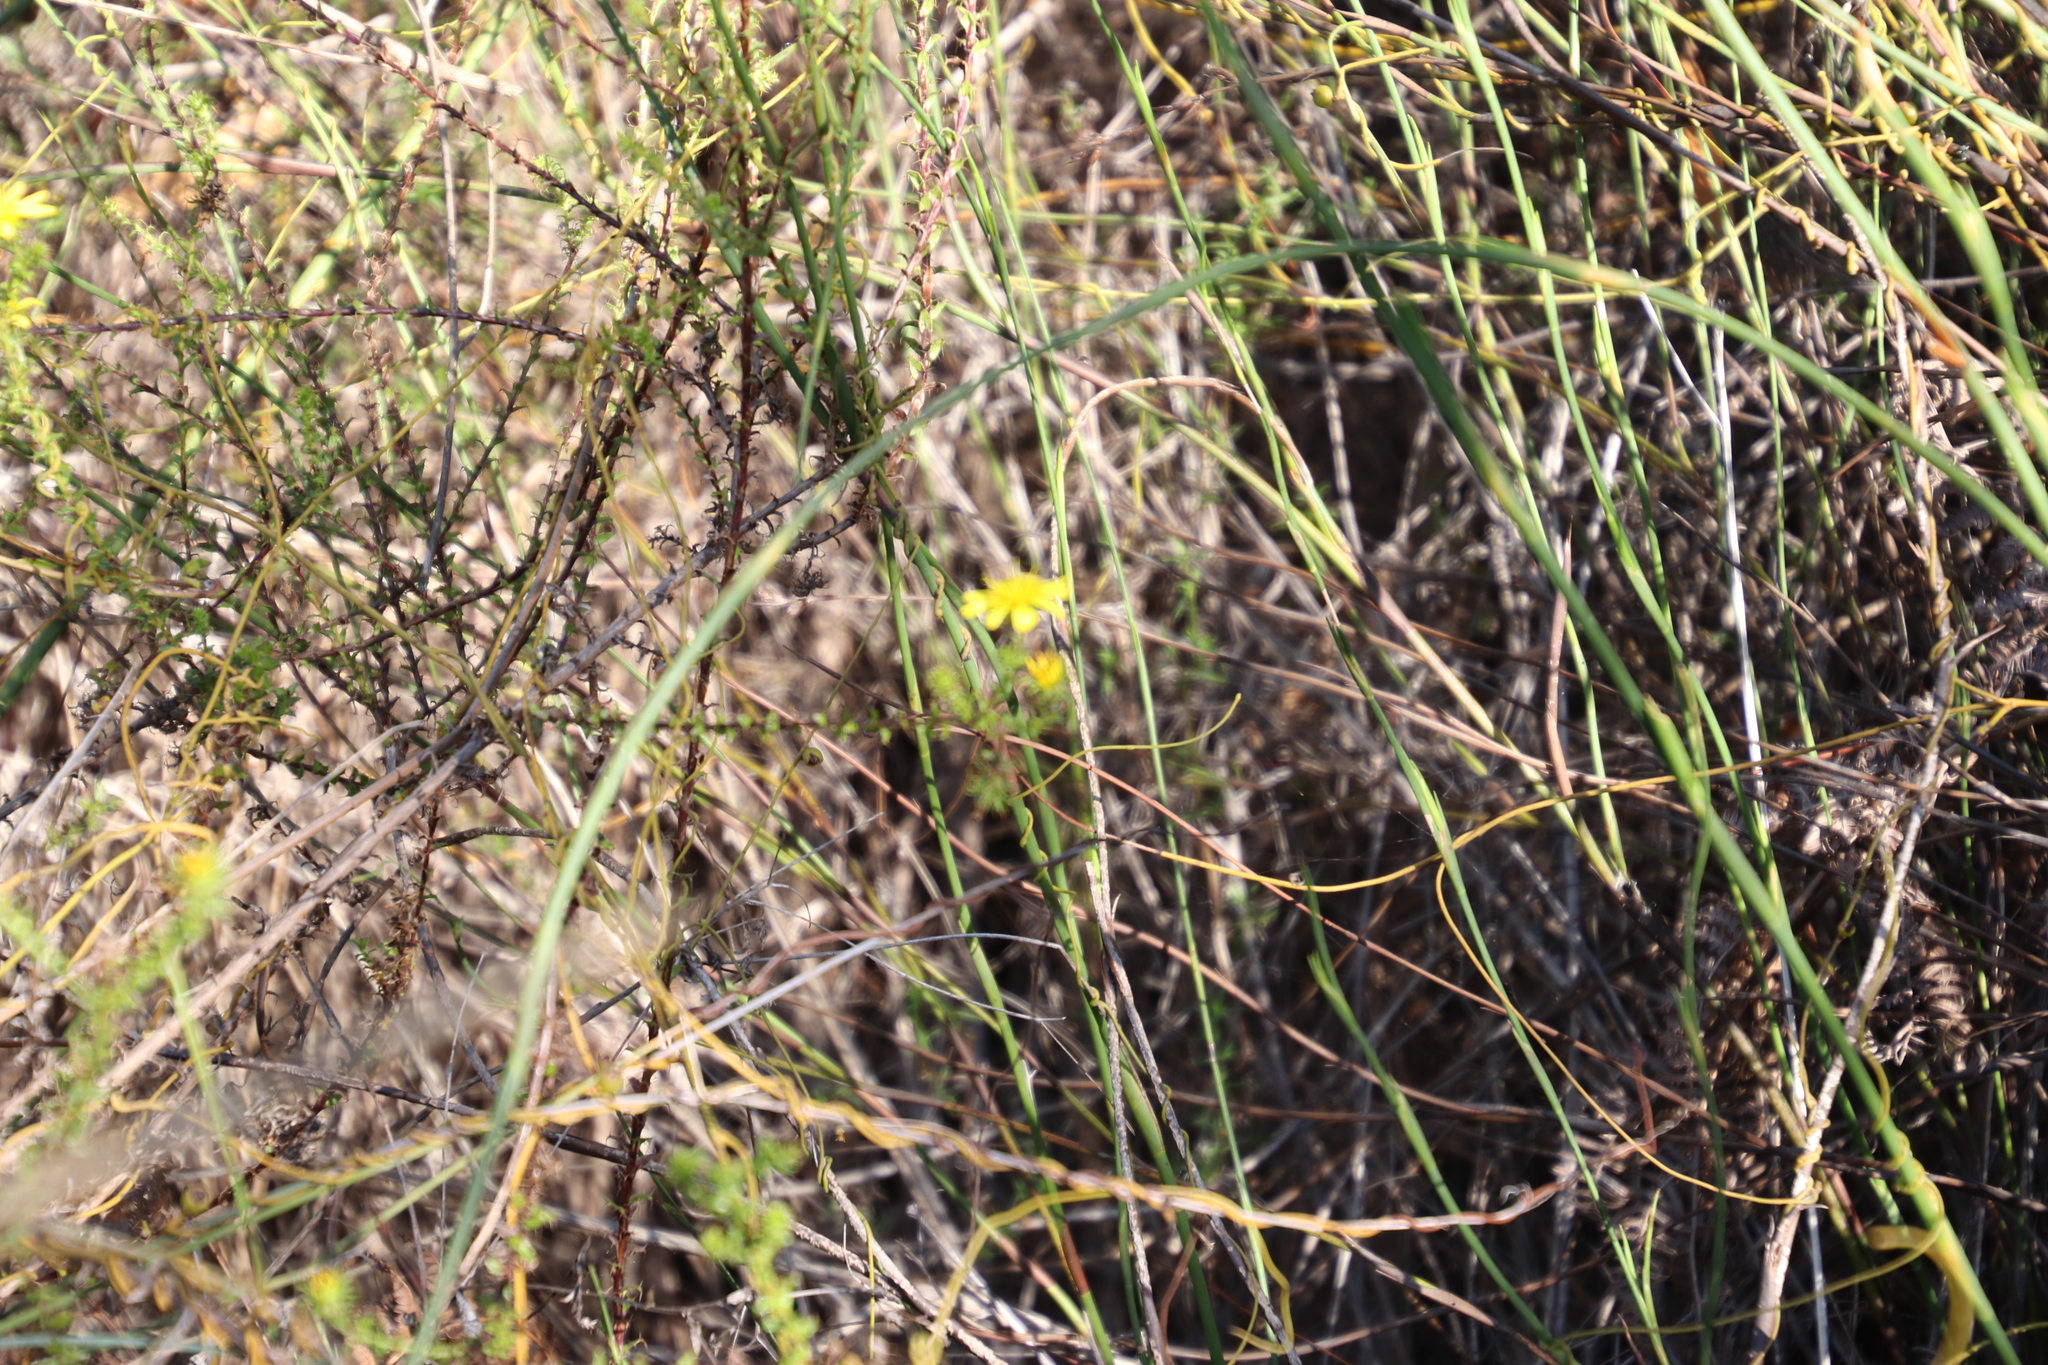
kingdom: Plantae
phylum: Tracheophyta
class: Magnoliopsida
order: Asterales
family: Asteraceae
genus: Cullumia
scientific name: Cullumia setosa
